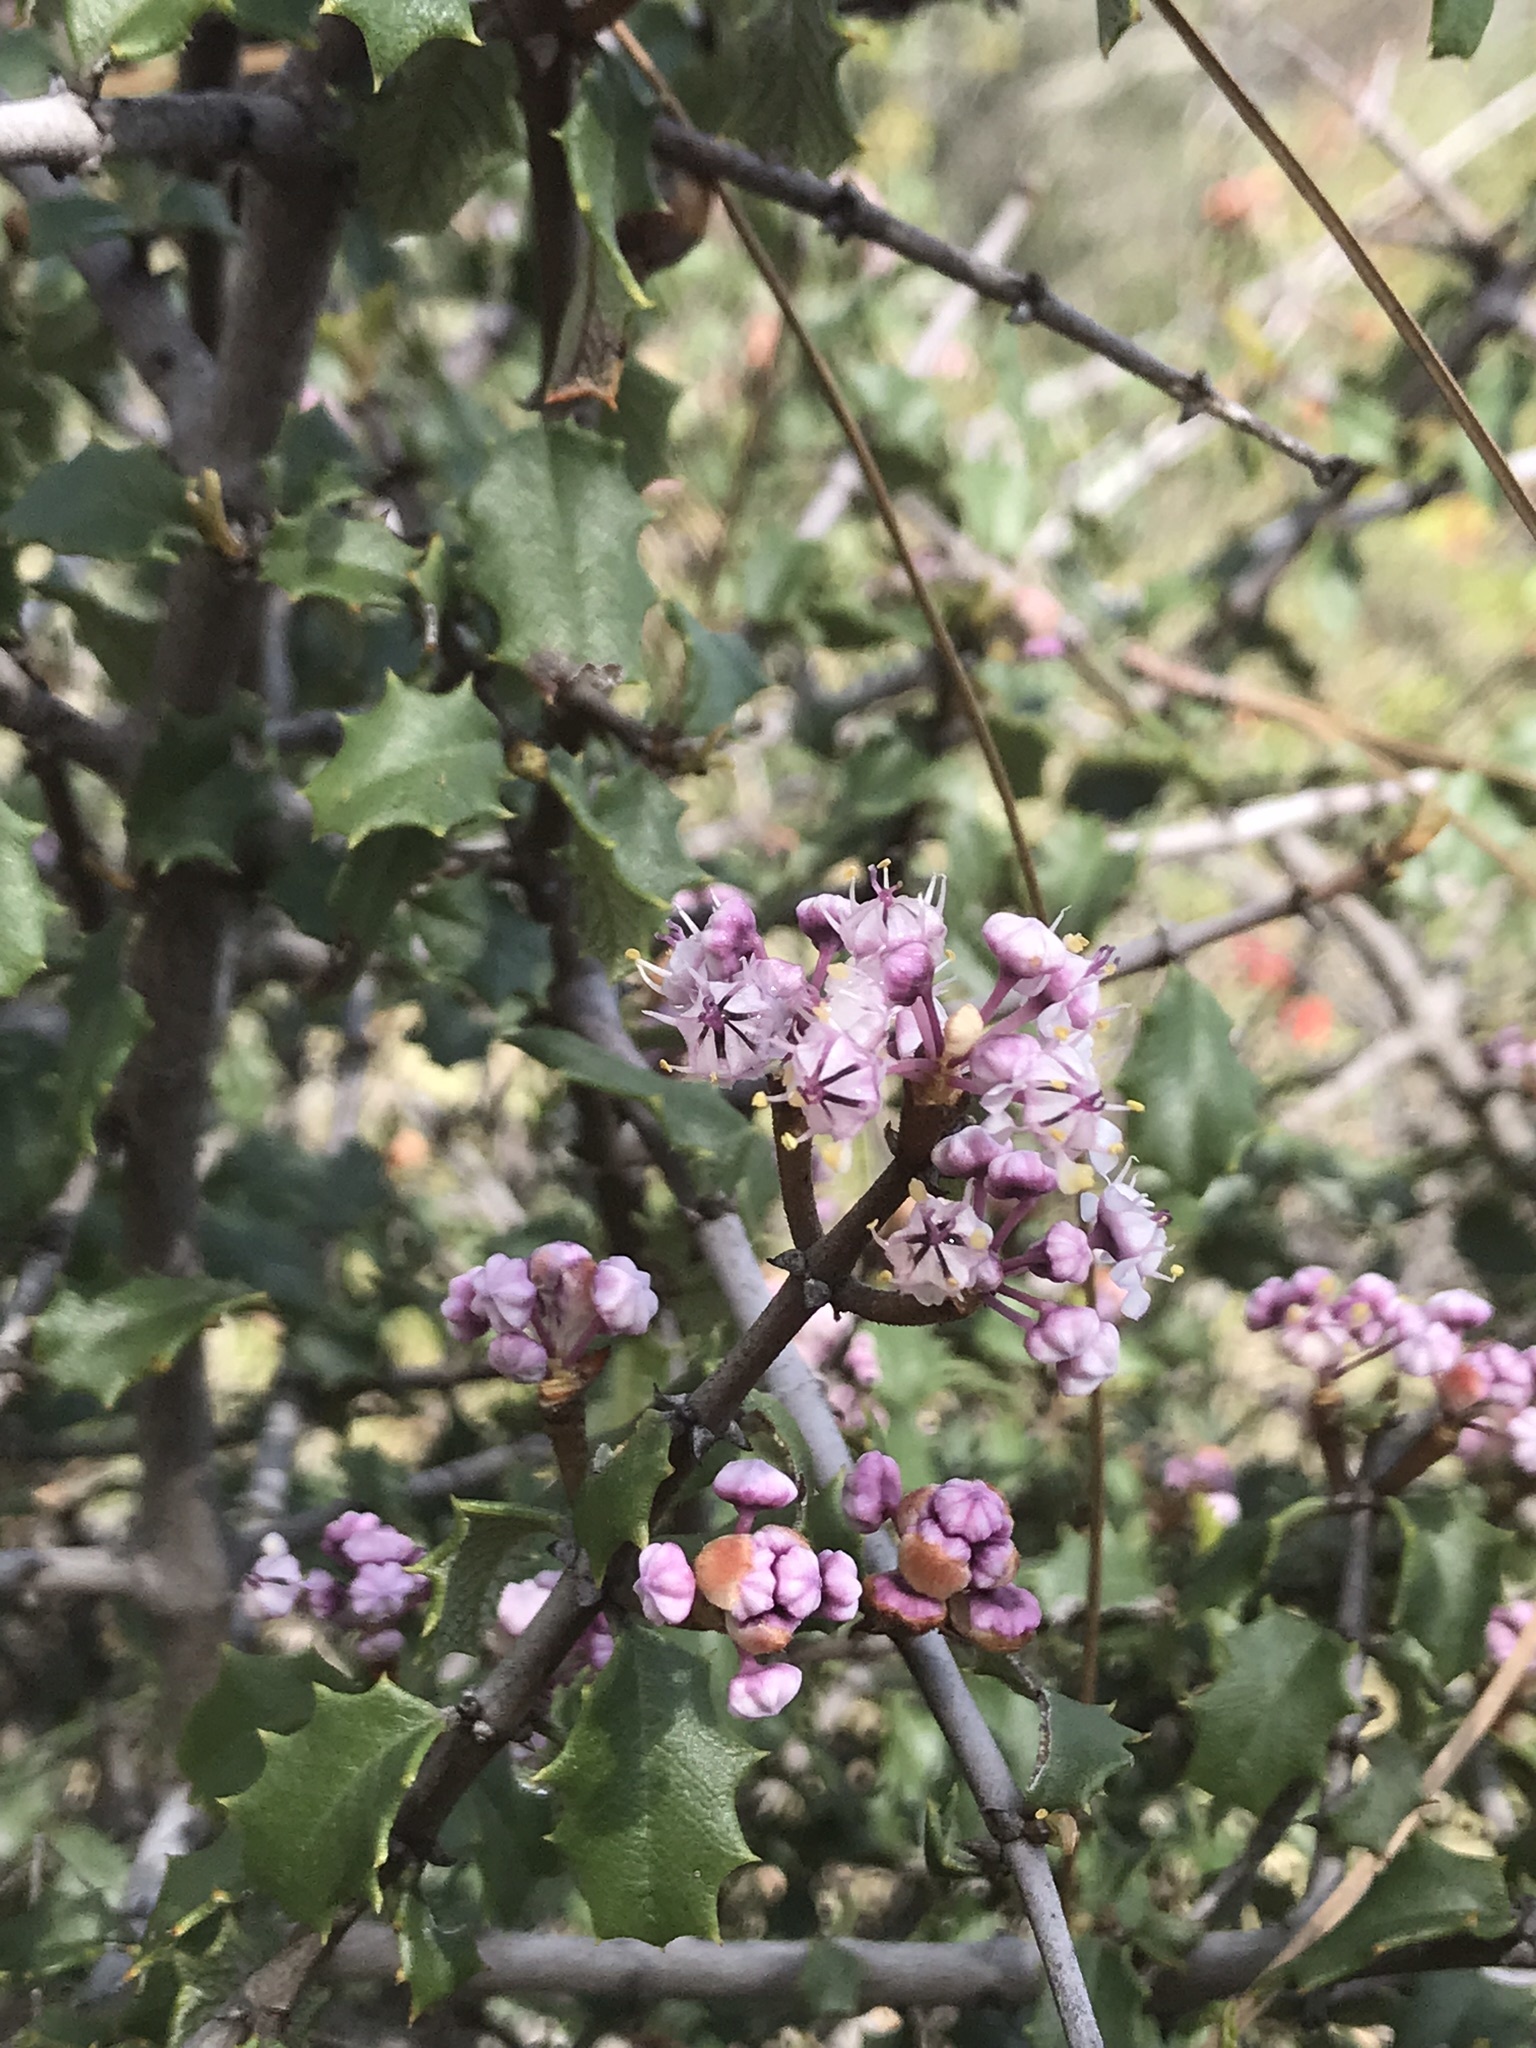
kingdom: Plantae
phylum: Tracheophyta
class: Magnoliopsida
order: Rosales
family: Rhamnaceae
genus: Ceanothus
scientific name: Ceanothus jepsonii
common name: Muskbrush
